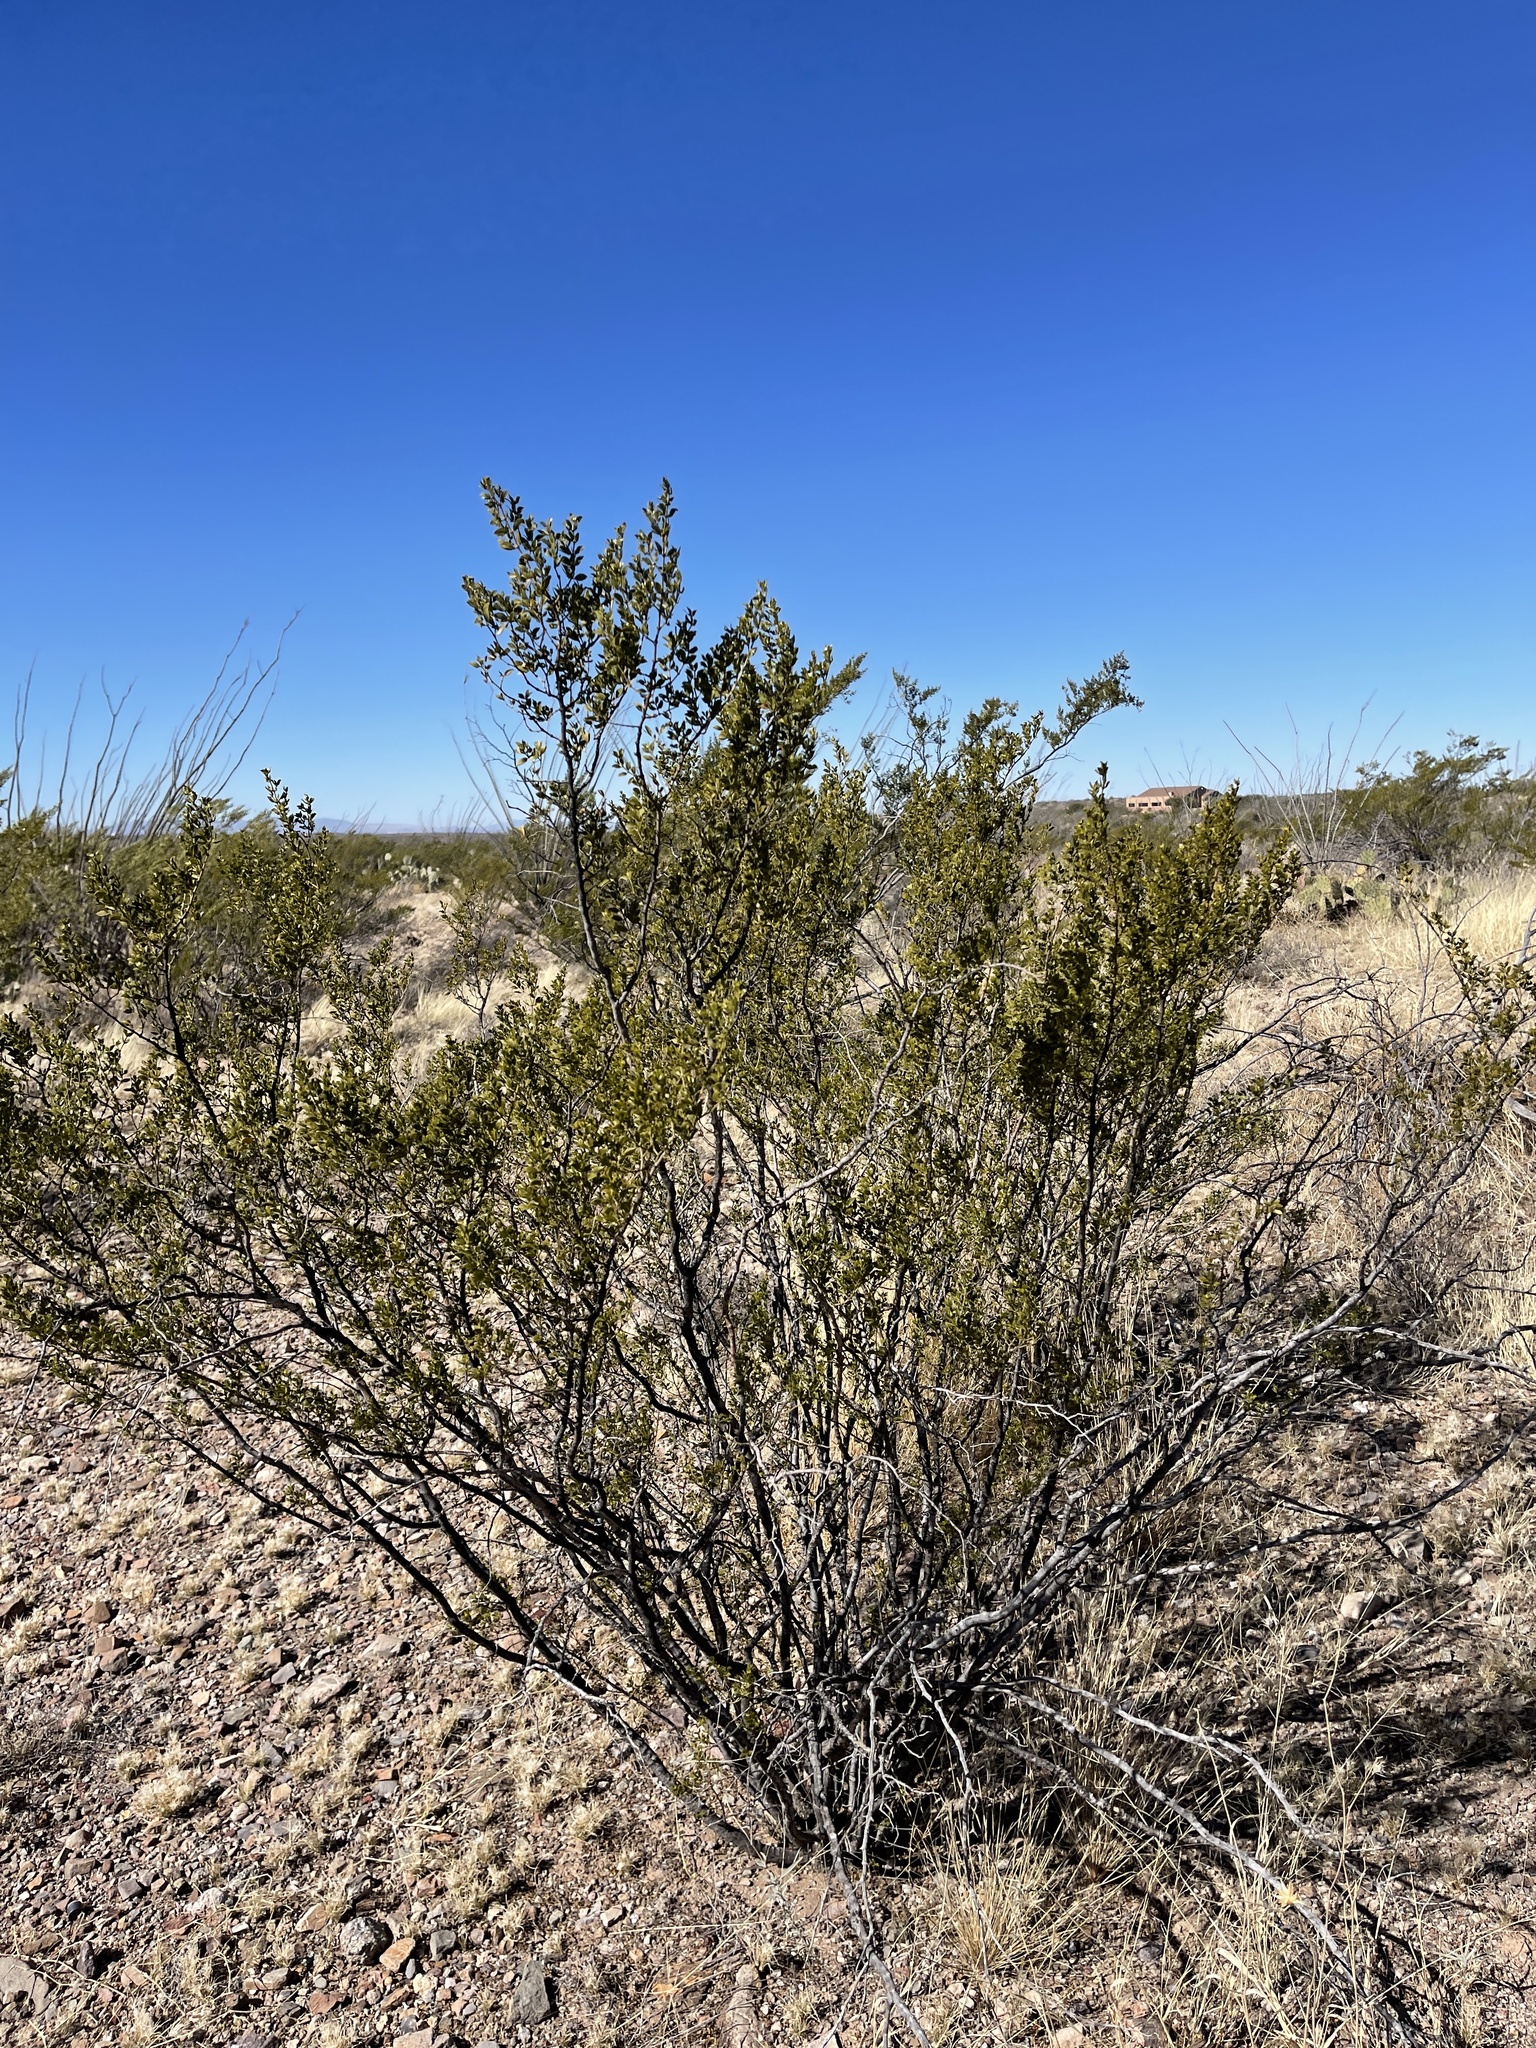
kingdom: Plantae
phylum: Tracheophyta
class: Magnoliopsida
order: Zygophyllales
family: Zygophyllaceae
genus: Larrea
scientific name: Larrea tridentata
